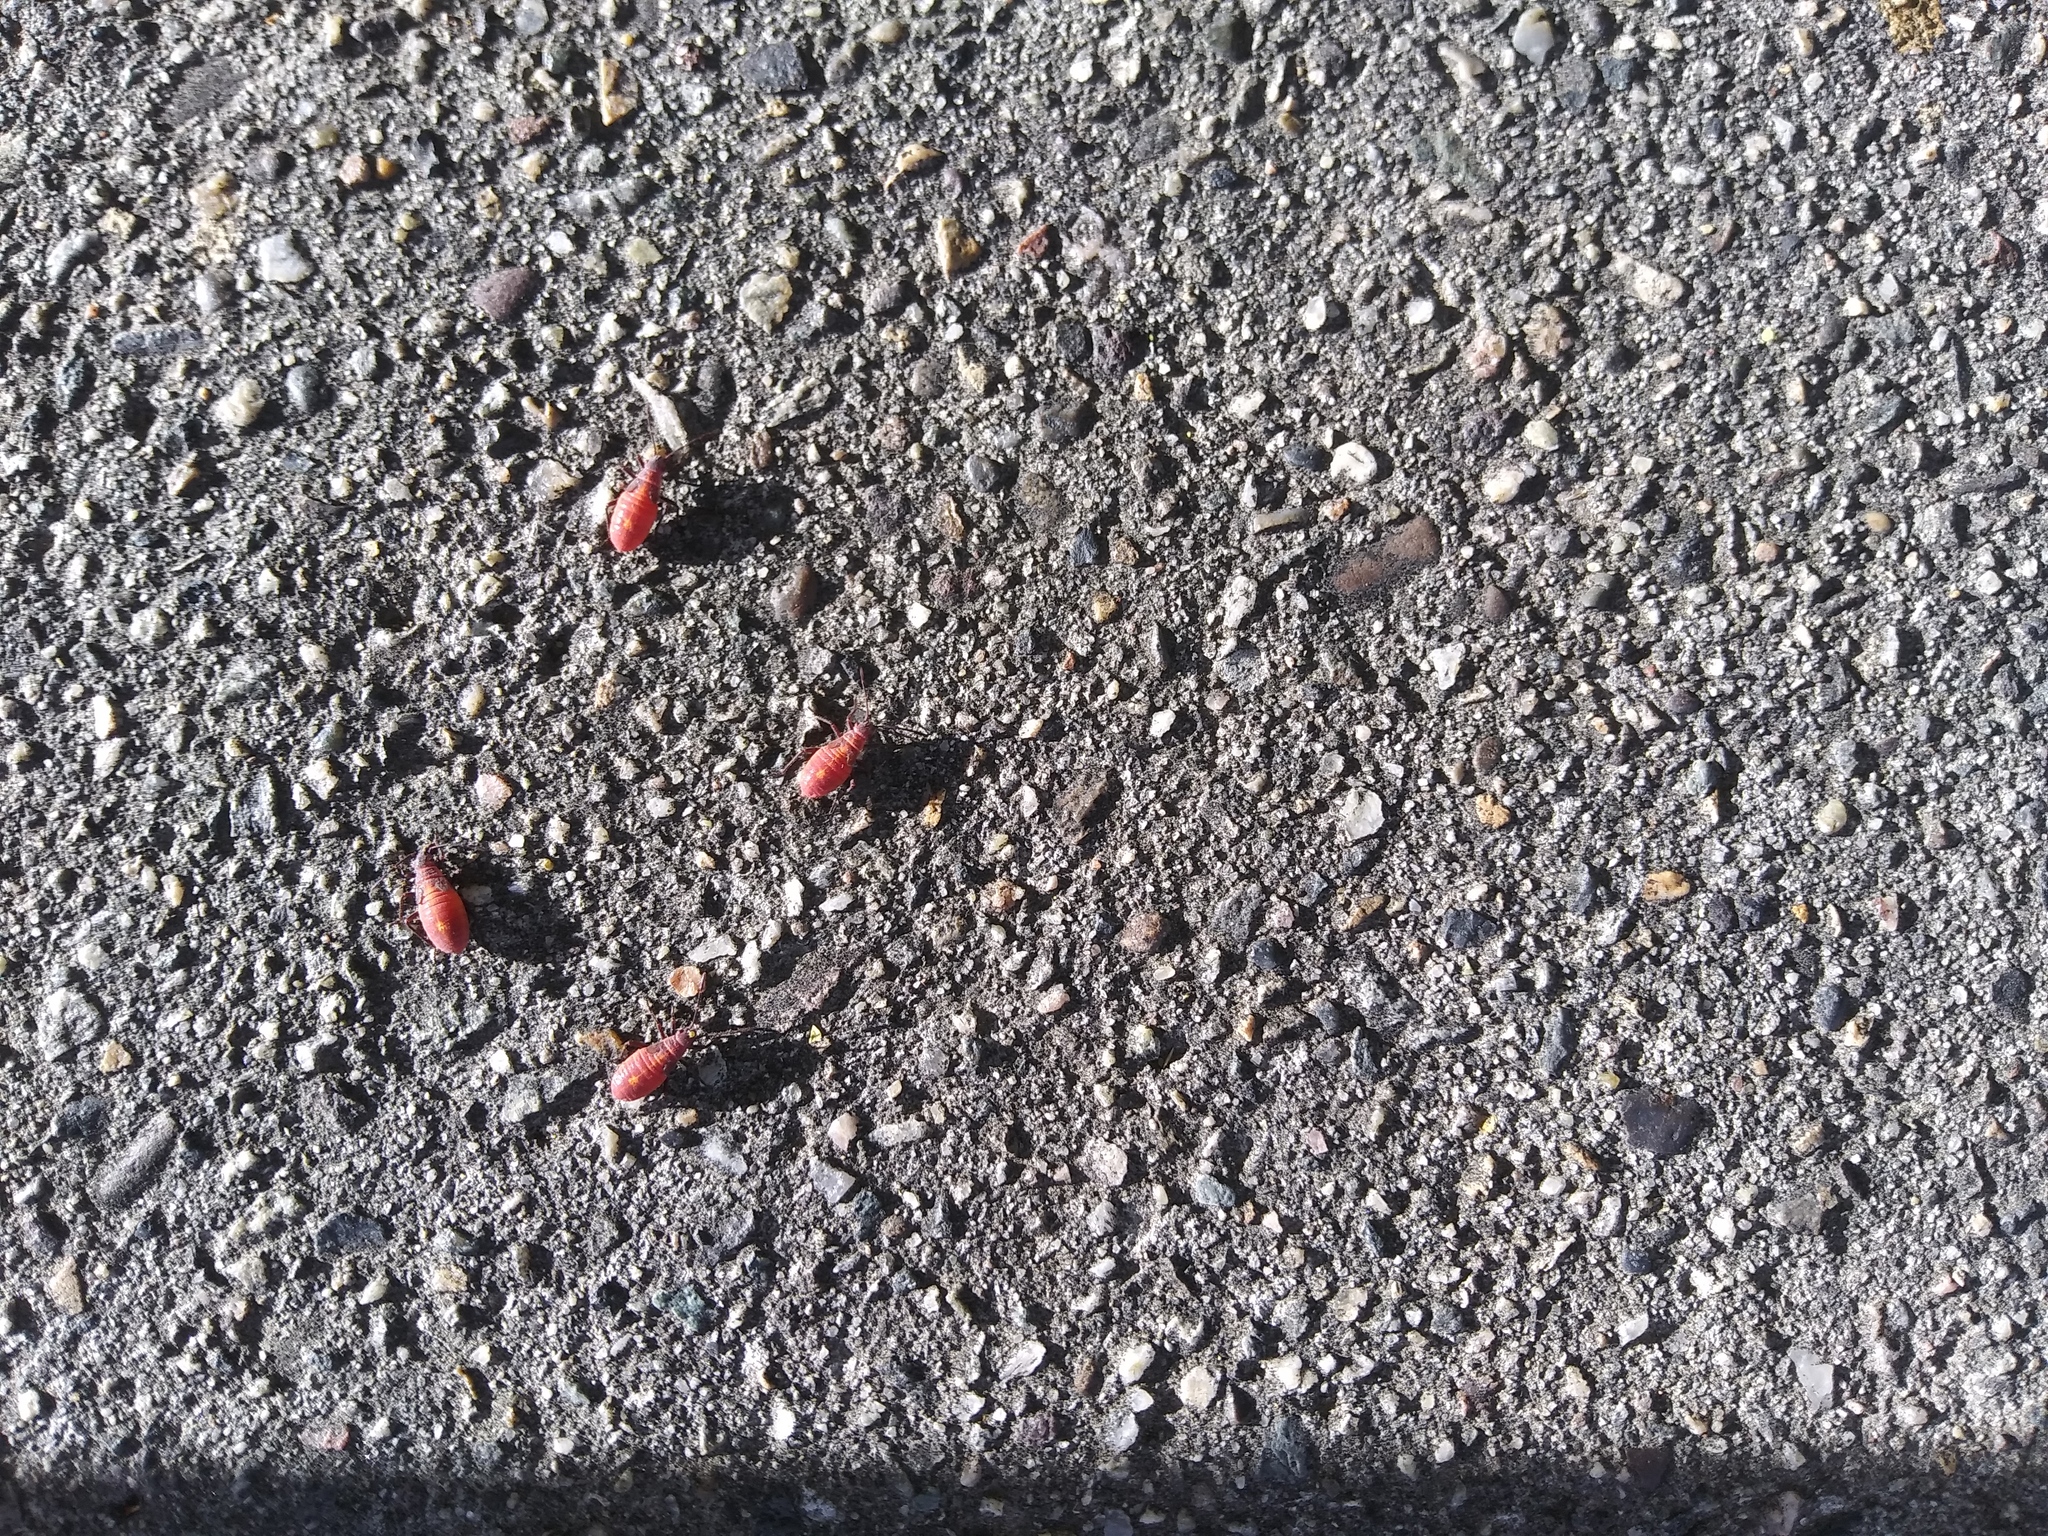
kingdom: Animalia
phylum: Arthropoda
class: Insecta
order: Hemiptera
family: Rhopalidae
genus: Boisea
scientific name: Boisea trivittata
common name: Boxelder bug
